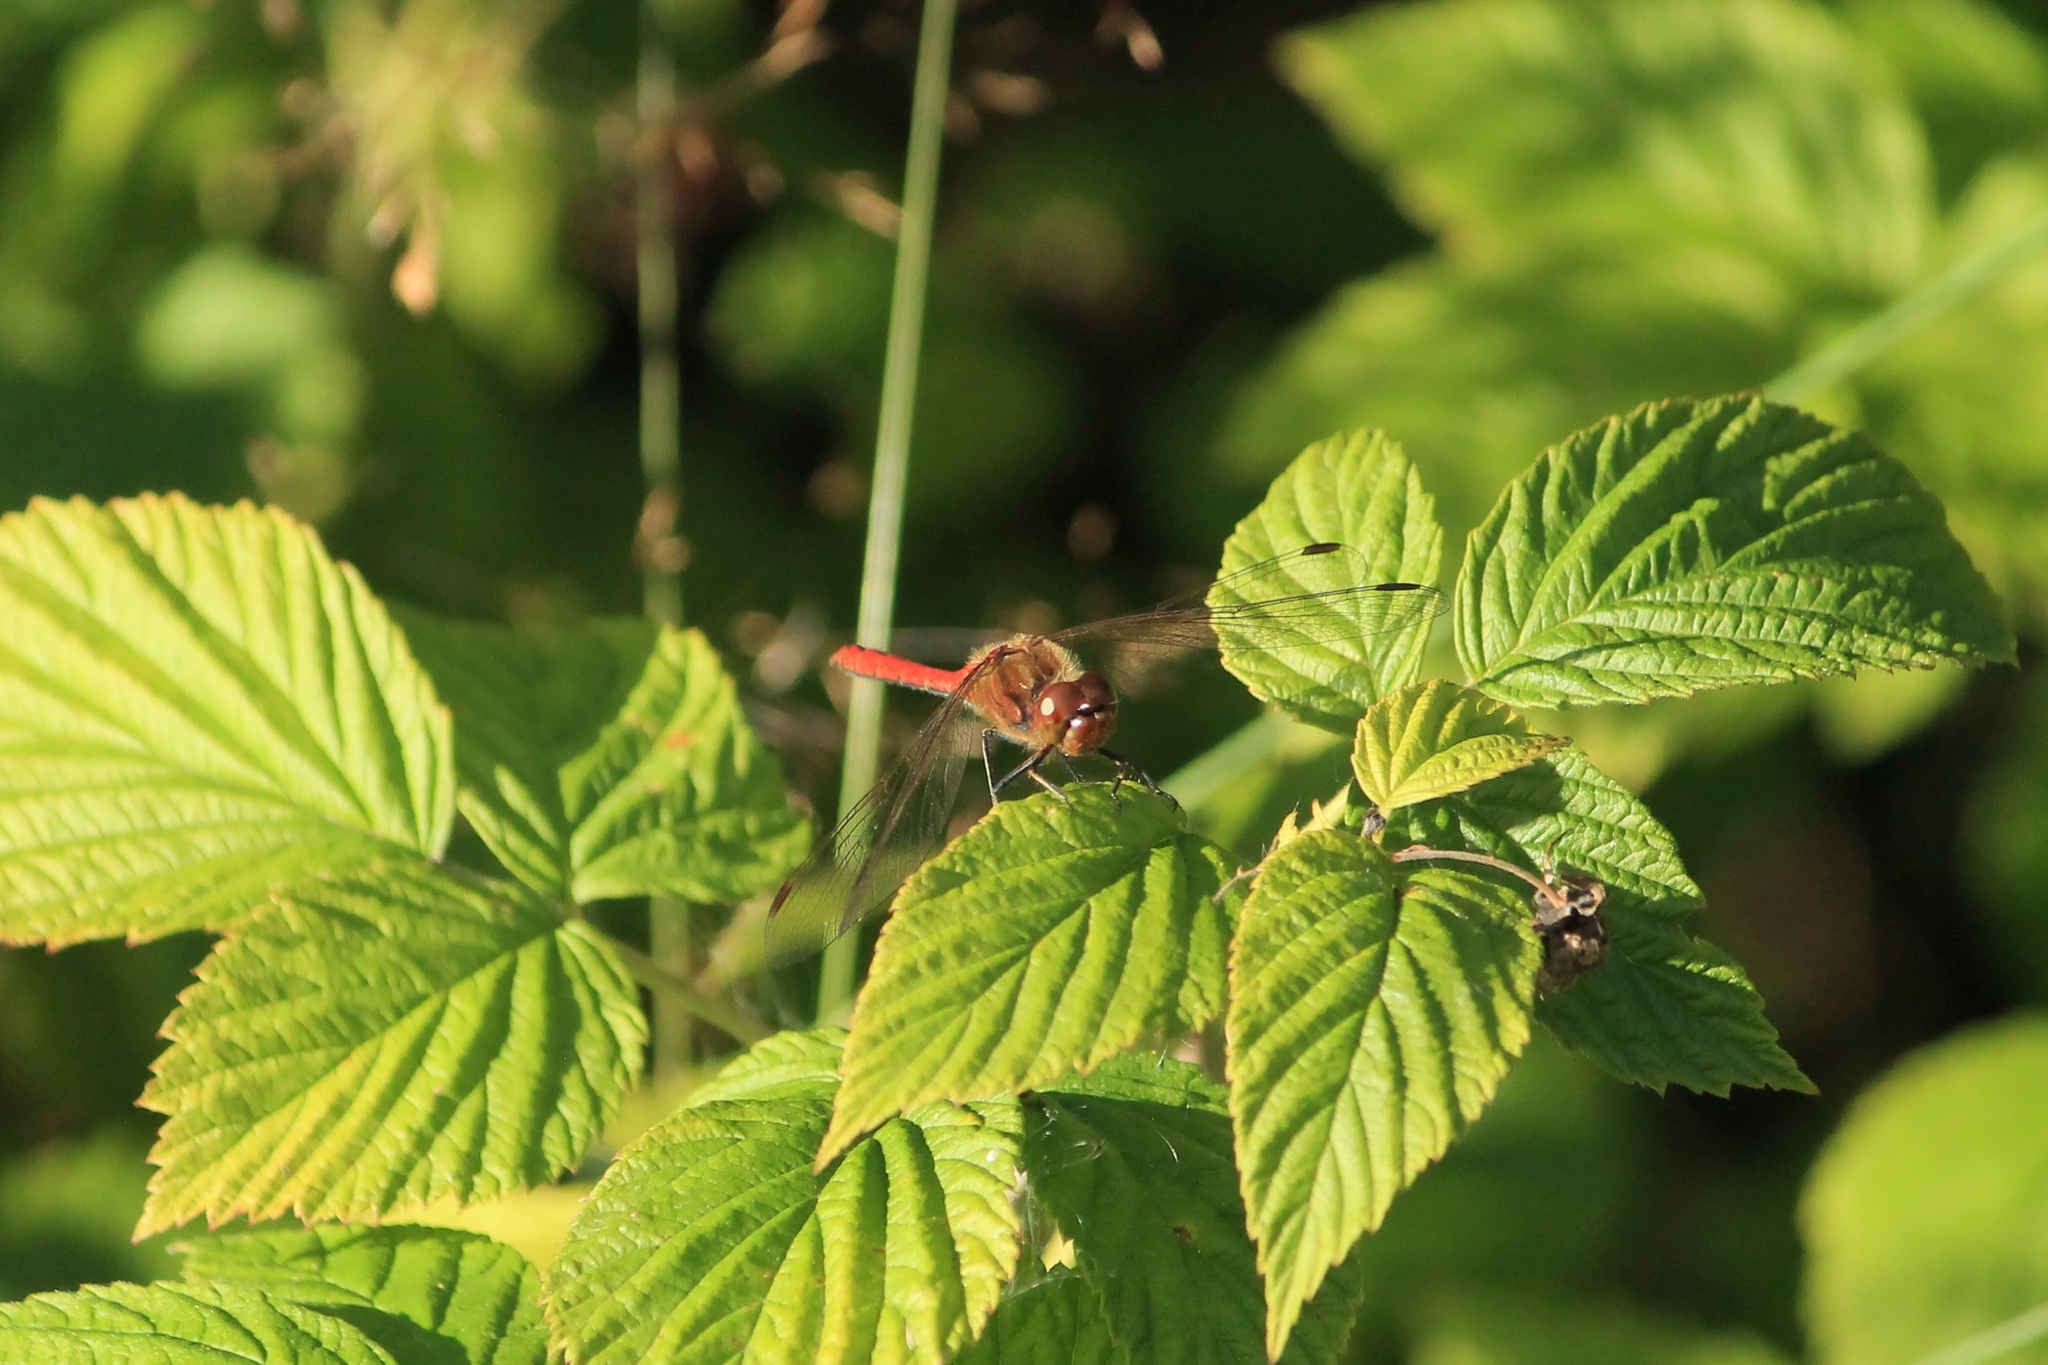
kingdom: Animalia
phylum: Arthropoda
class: Insecta
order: Odonata
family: Libellulidae
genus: Sympetrum
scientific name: Sympetrum vulgatum
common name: Vagrant darter
